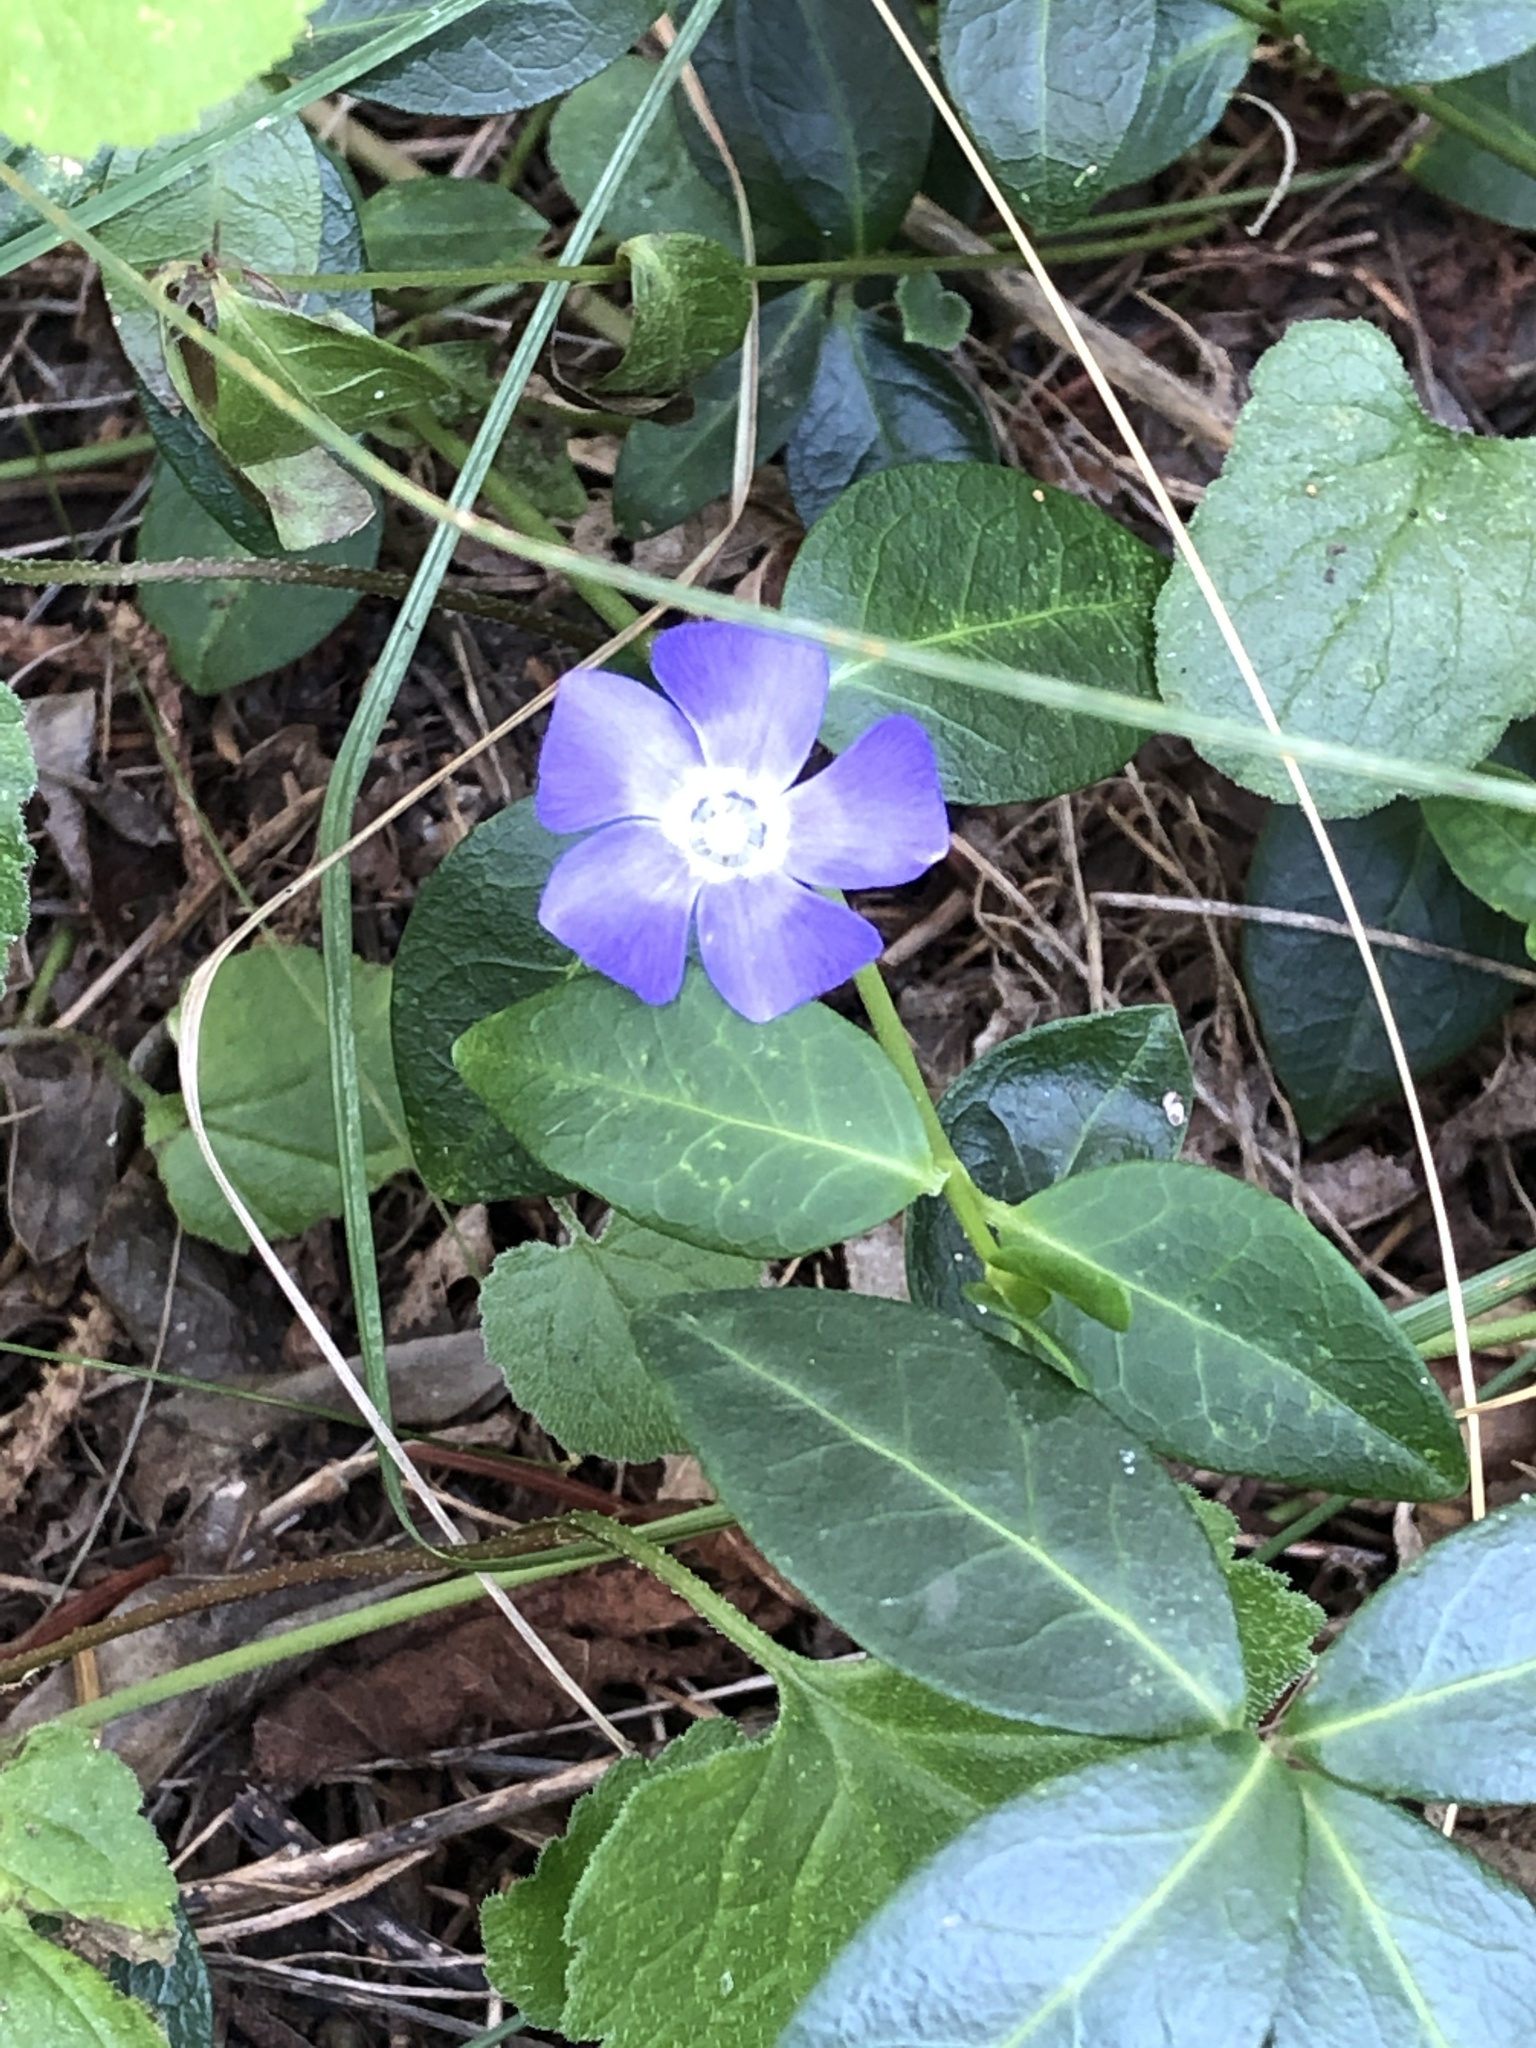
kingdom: Plantae
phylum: Tracheophyta
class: Magnoliopsida
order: Gentianales
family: Apocynaceae
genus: Vinca
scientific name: Vinca minor
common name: Lesser periwinkle
